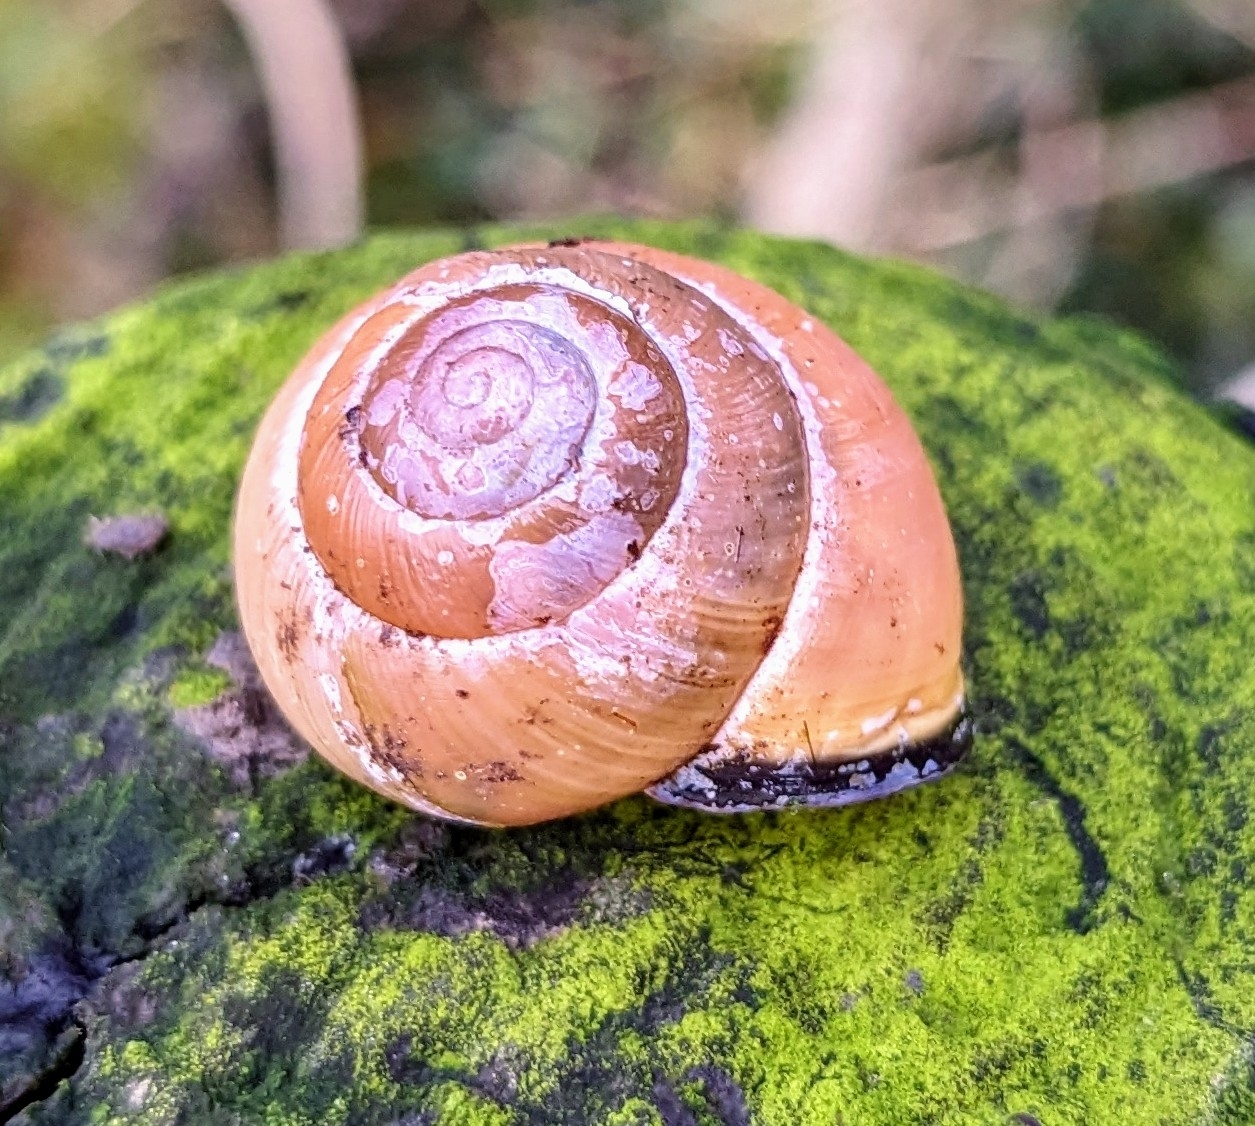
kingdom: Animalia
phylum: Mollusca
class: Gastropoda
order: Stylommatophora
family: Helicidae
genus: Cepaea
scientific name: Cepaea nemoralis
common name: Grovesnail
